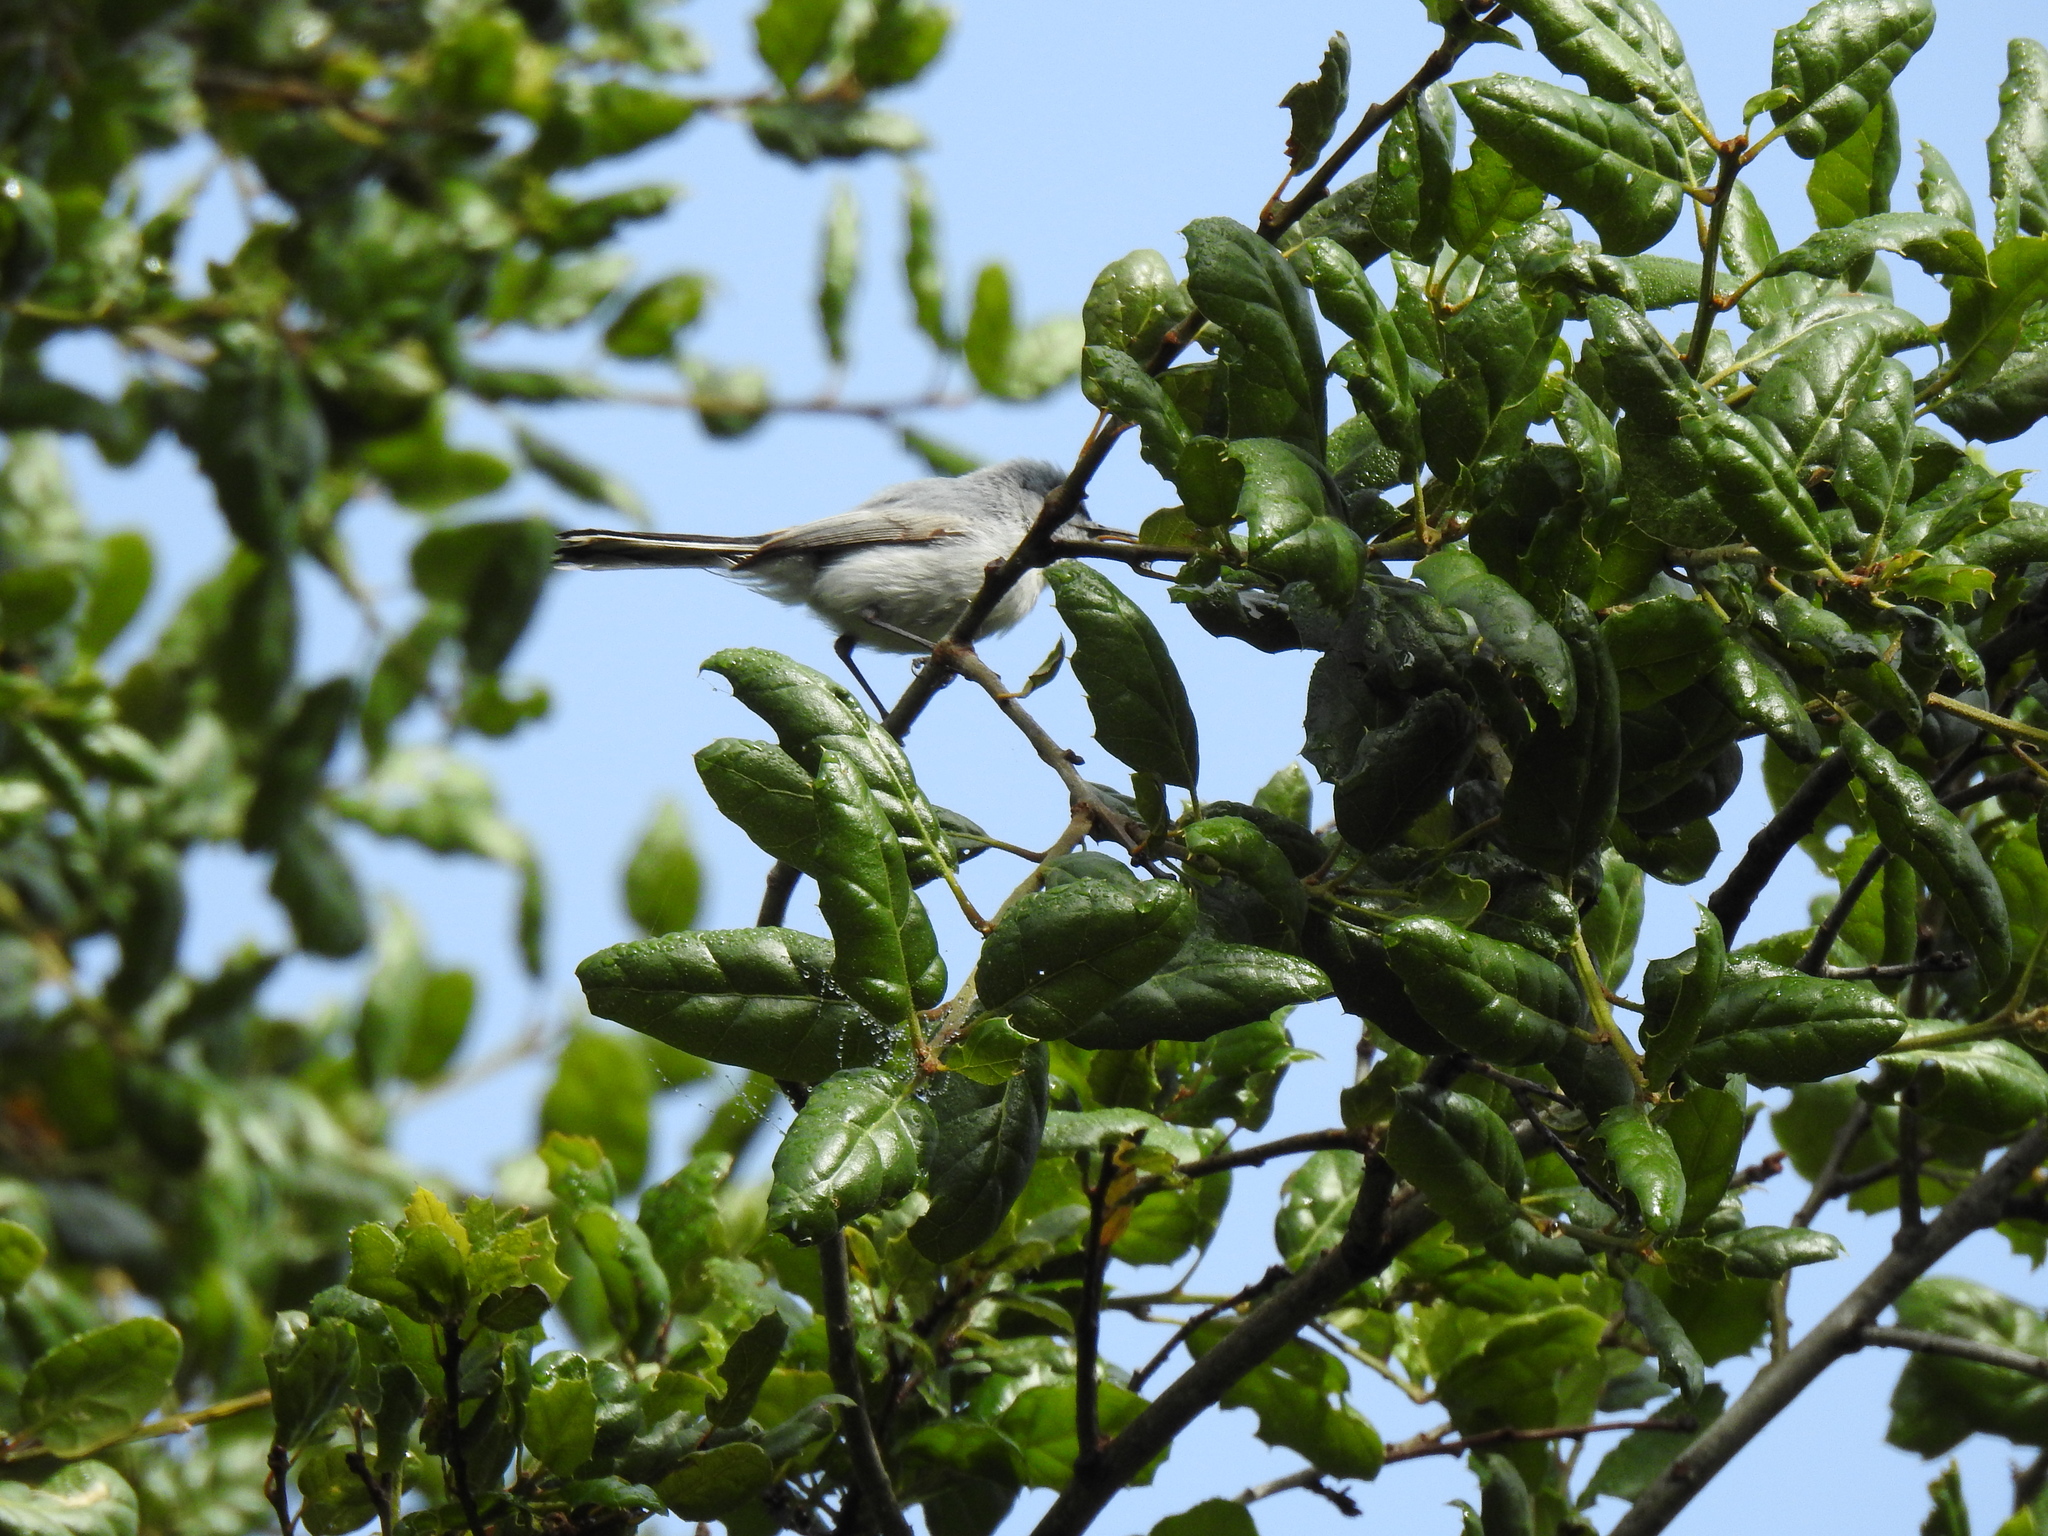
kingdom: Animalia
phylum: Chordata
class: Aves
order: Passeriformes
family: Polioptilidae
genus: Polioptila
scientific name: Polioptila caerulea
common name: Blue-gray gnatcatcher
